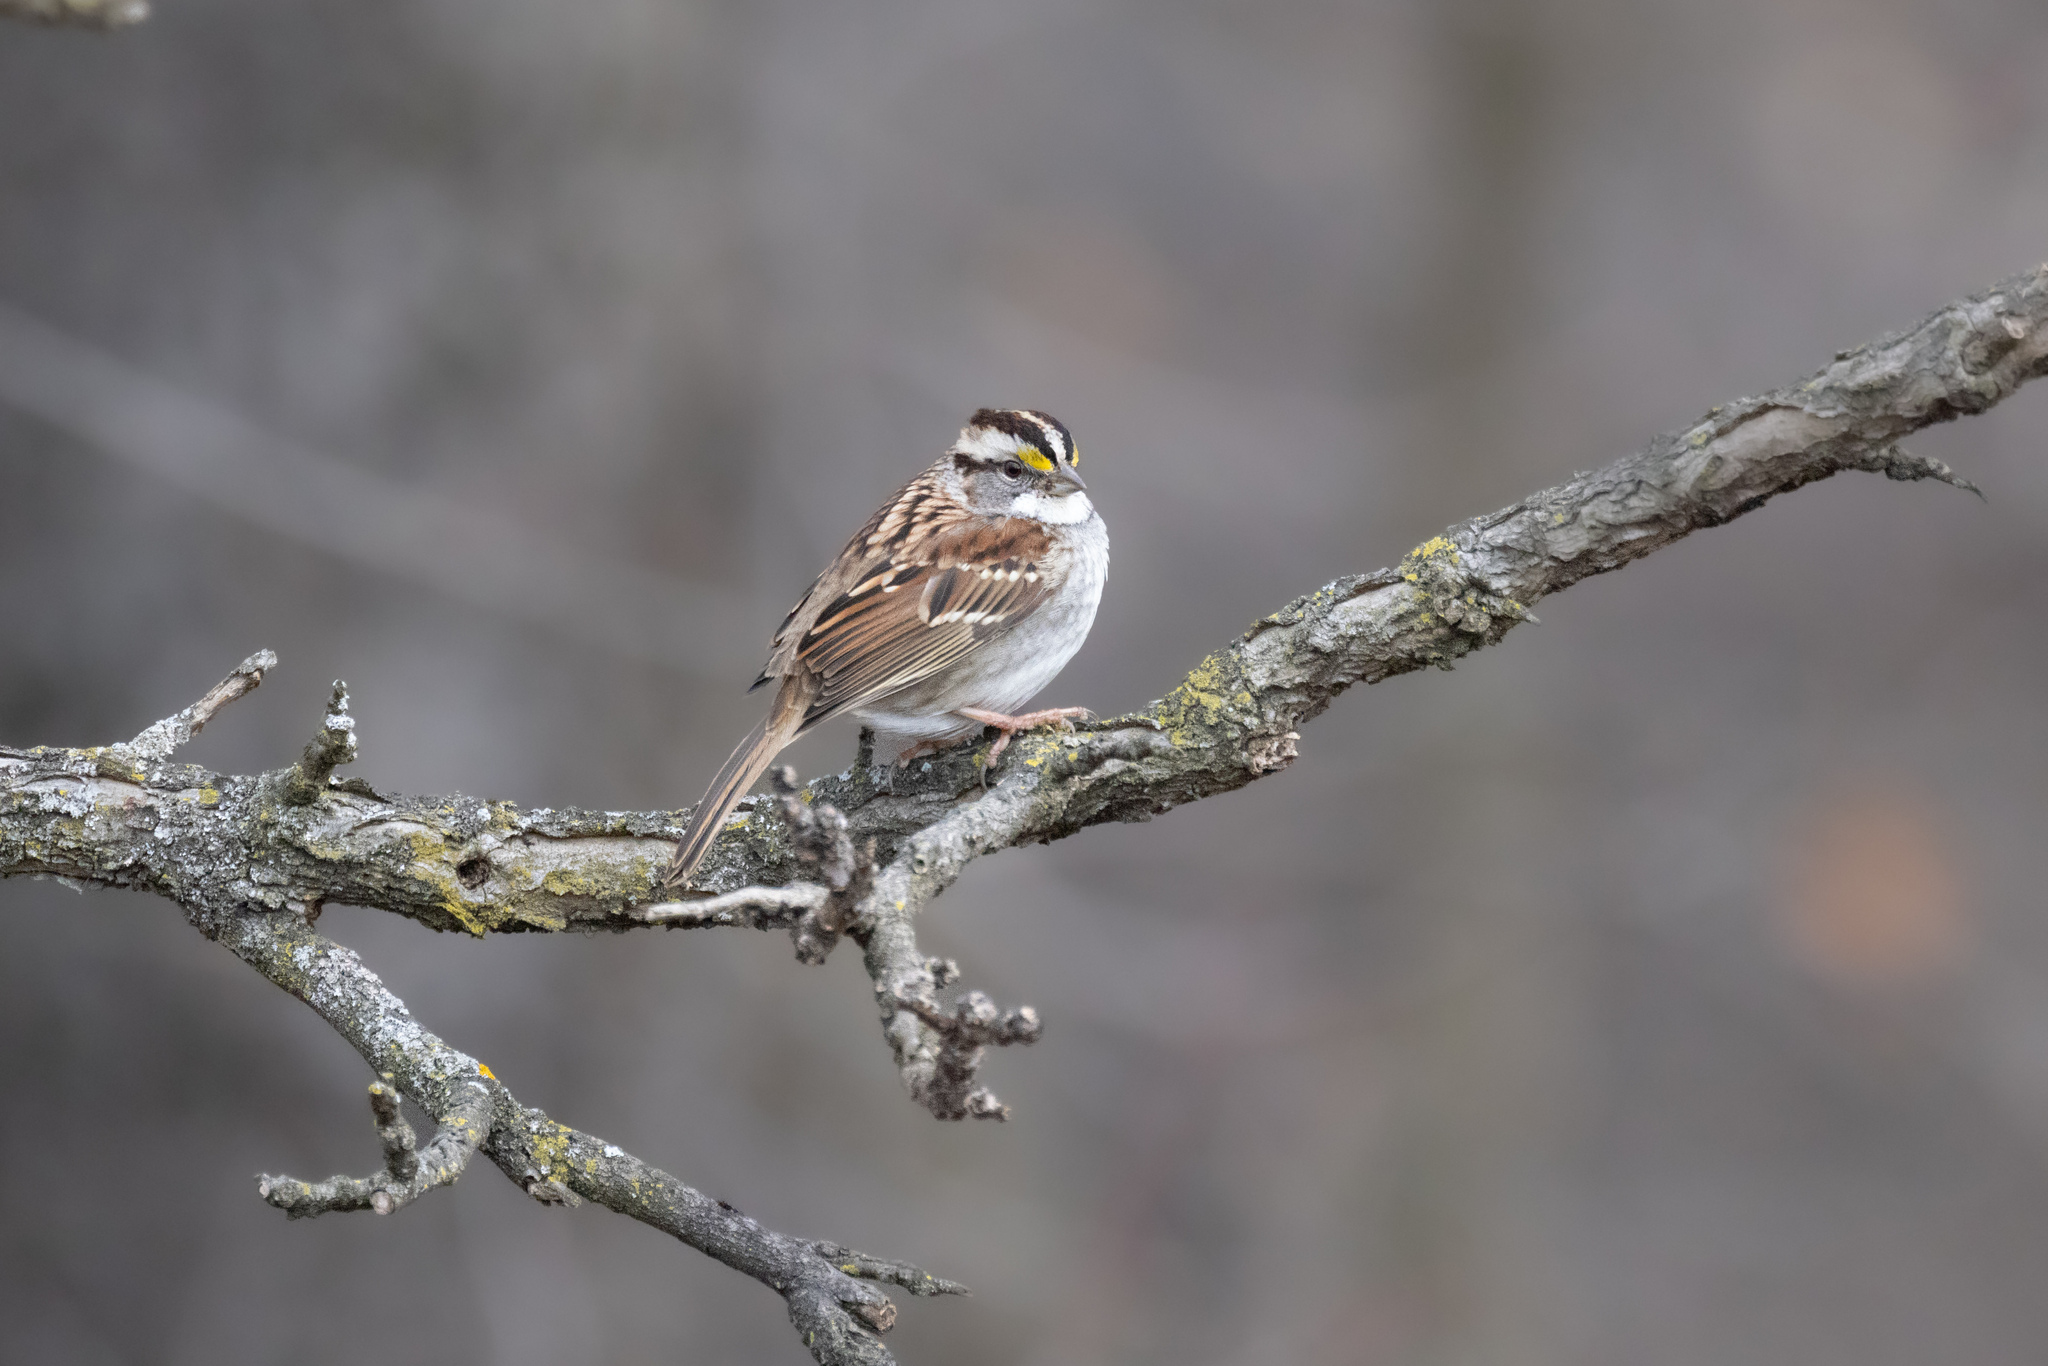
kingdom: Animalia
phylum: Chordata
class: Aves
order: Passeriformes
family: Passerellidae
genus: Zonotrichia
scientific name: Zonotrichia albicollis
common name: White-throated sparrow
